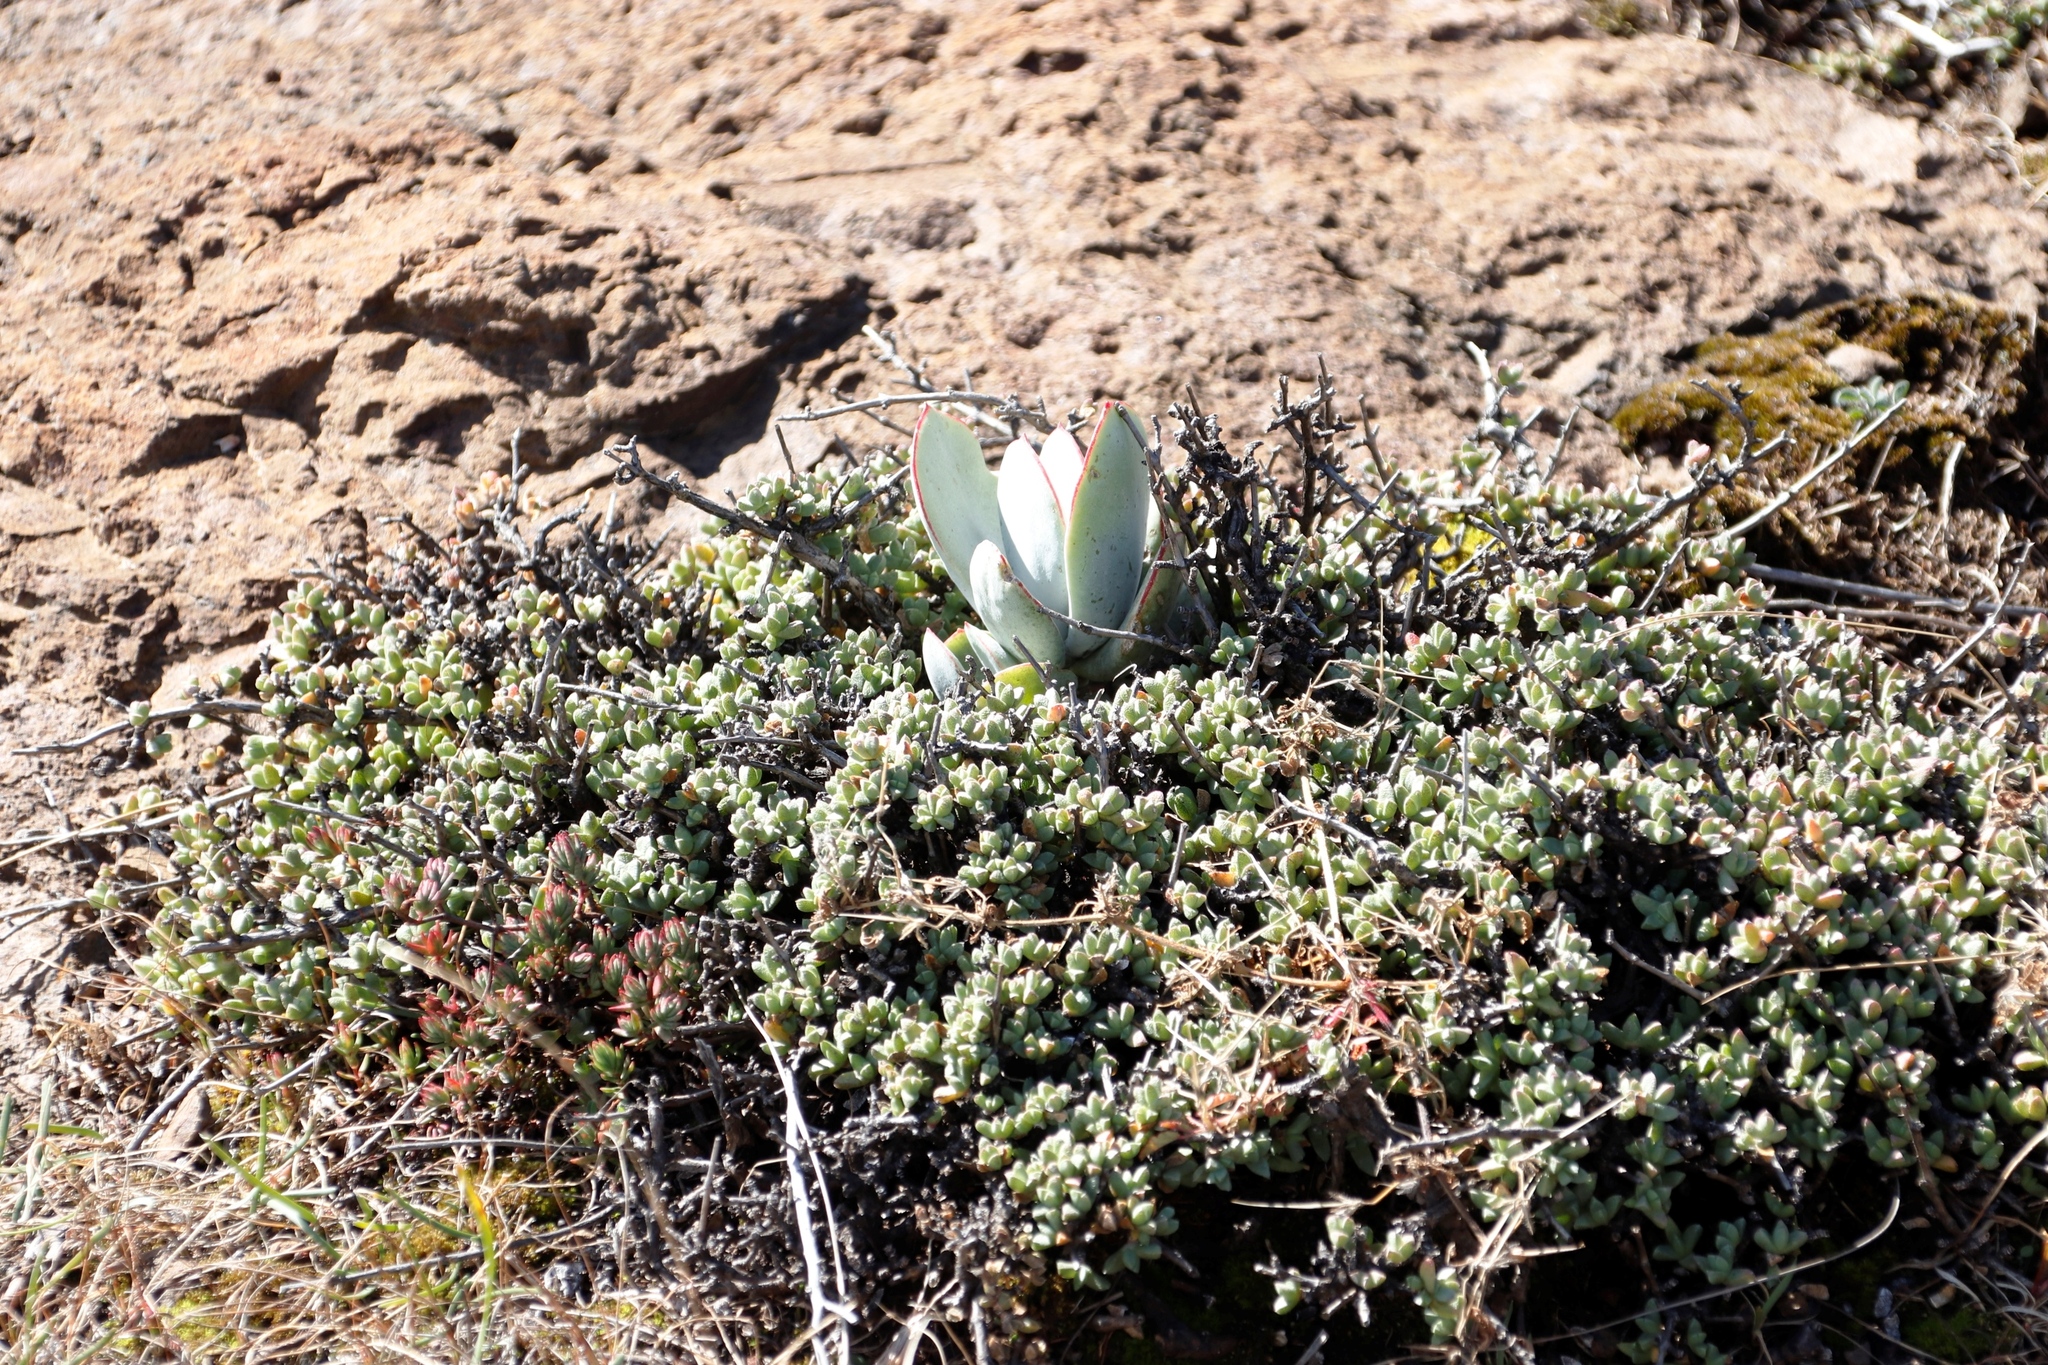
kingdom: Plantae
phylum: Tracheophyta
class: Magnoliopsida
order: Saxifragales
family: Crassulaceae
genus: Cotyledon
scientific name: Cotyledon orbiculata
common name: Pig's ear
